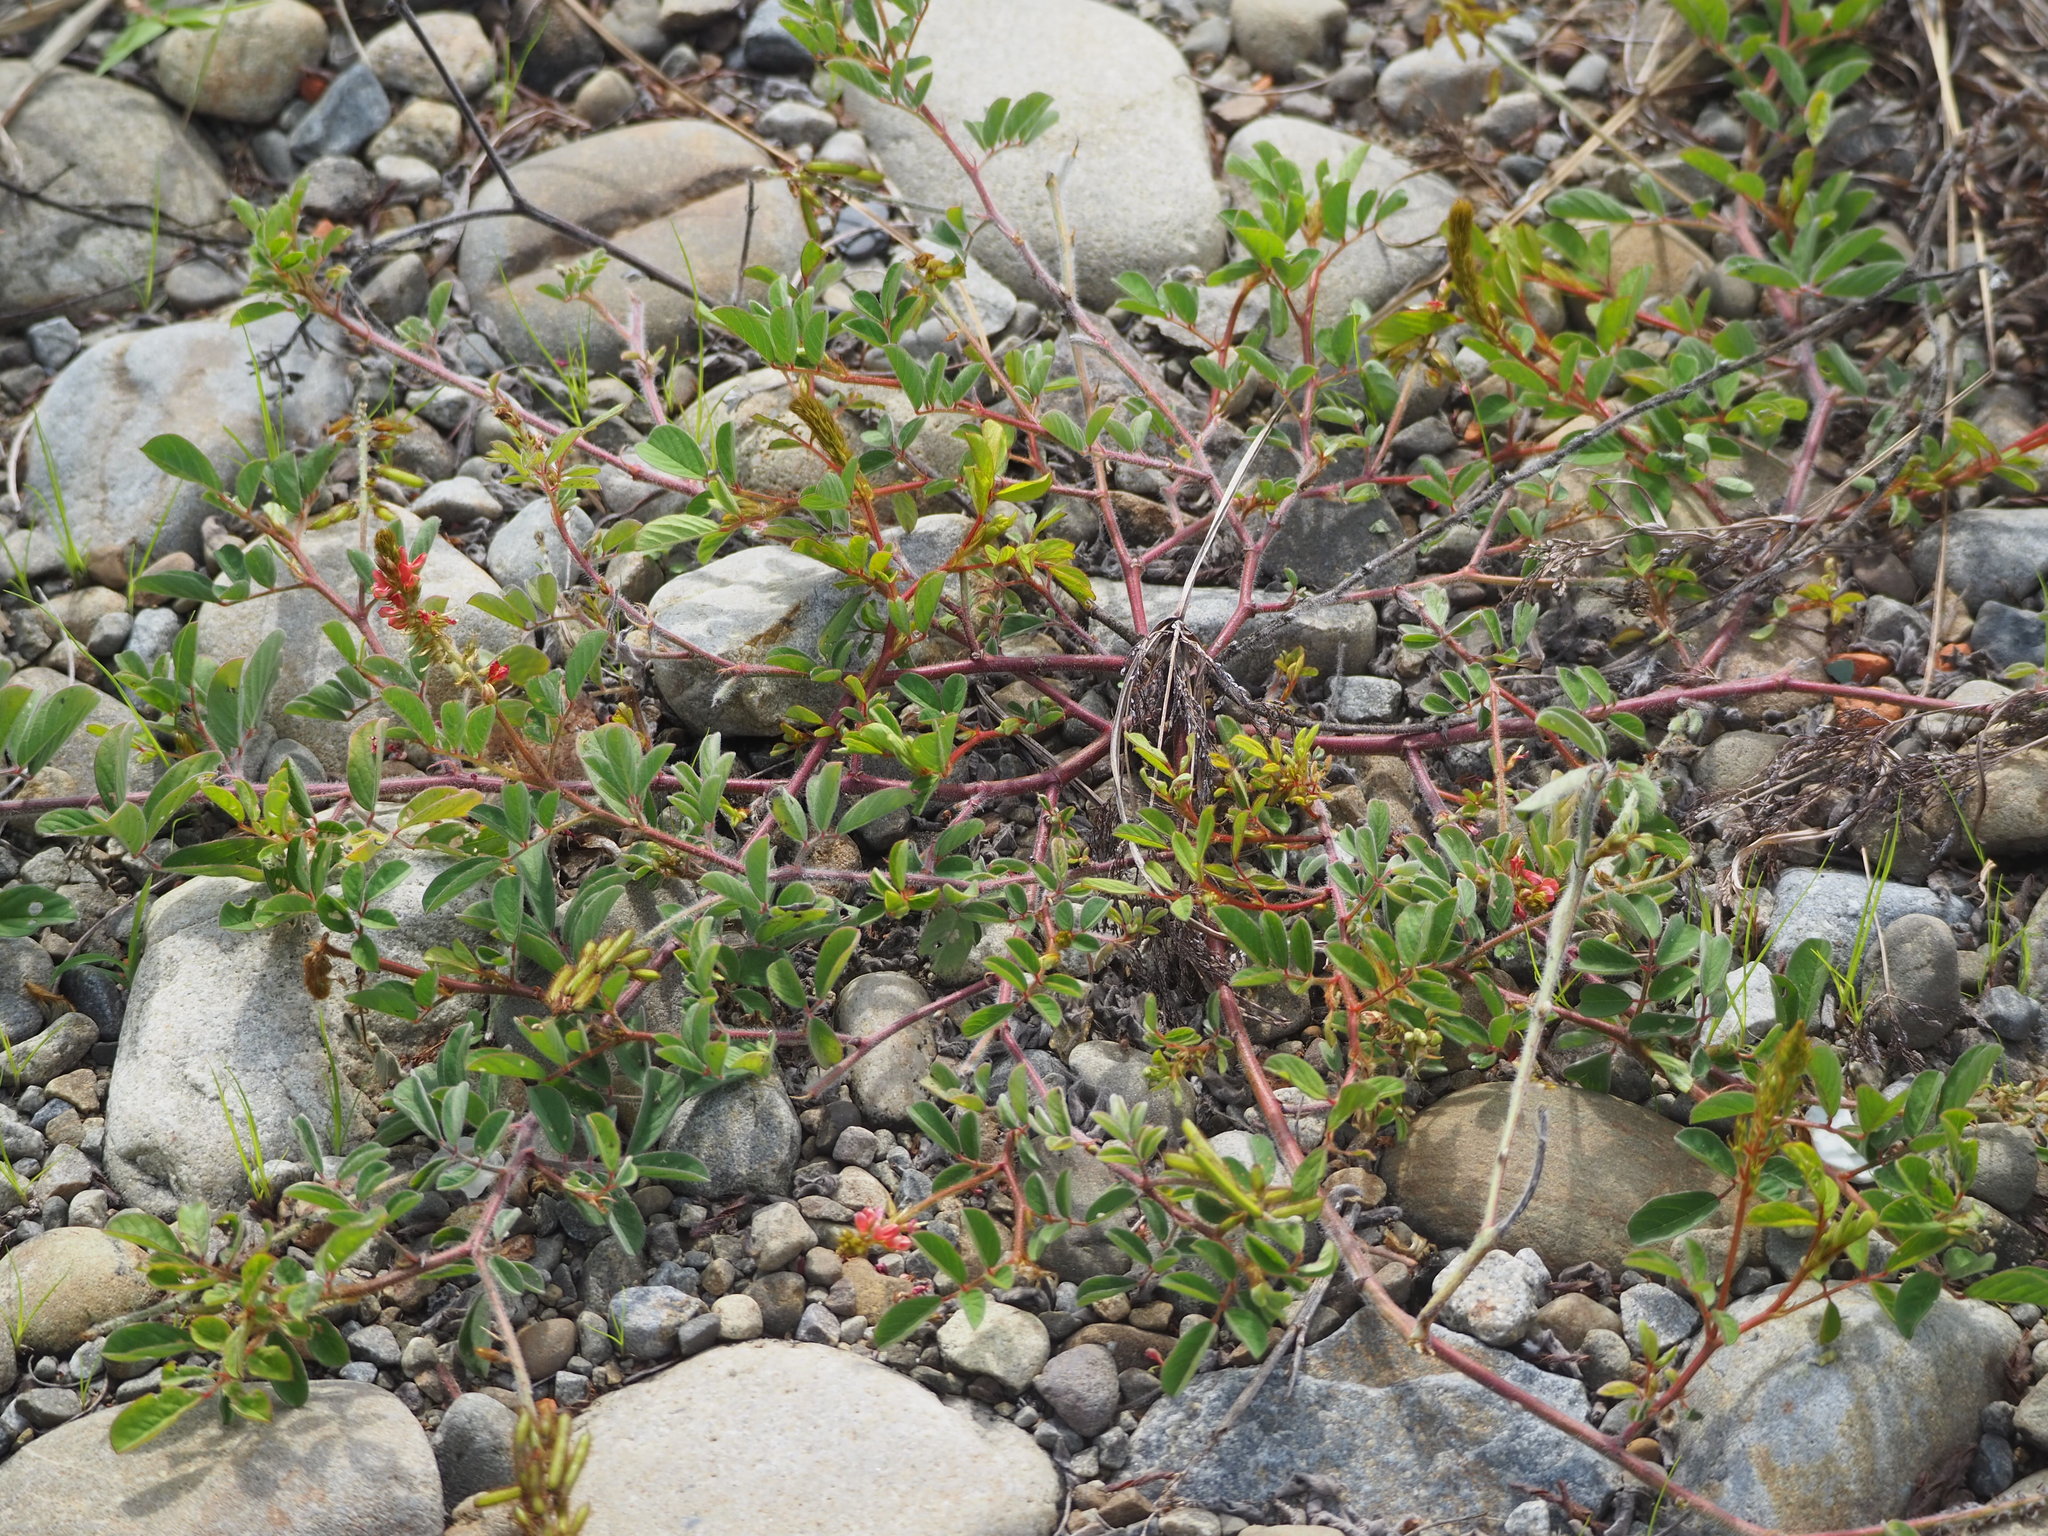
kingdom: Plantae
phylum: Tracheophyta
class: Magnoliopsida
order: Fabales
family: Fabaceae
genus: Indigofera
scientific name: Indigofera hirsuta
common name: Hairy indigo
